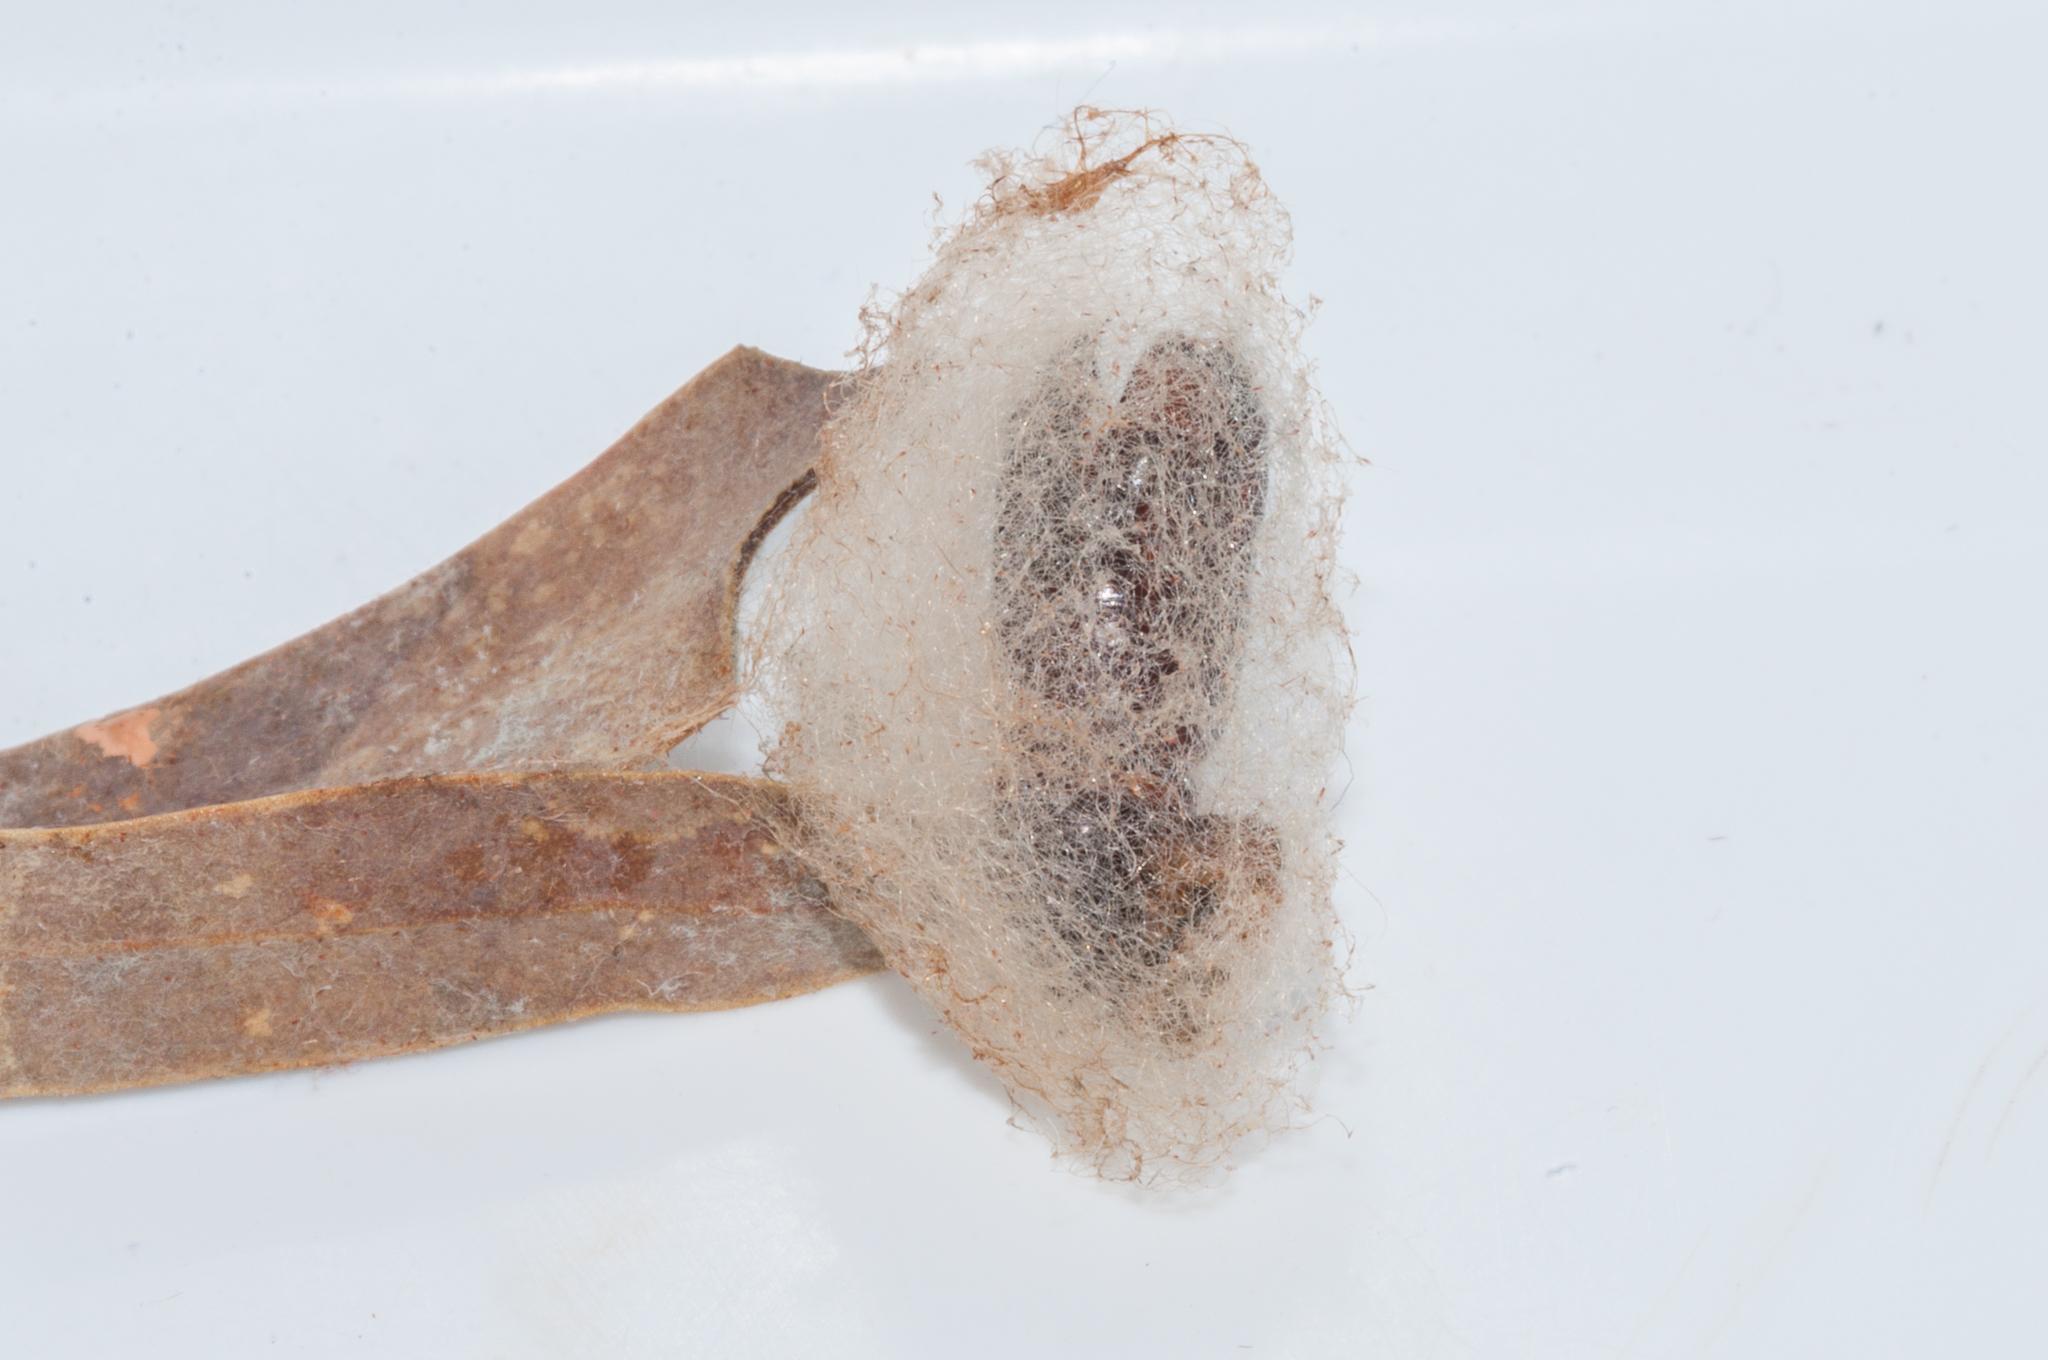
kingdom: Animalia
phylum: Arthropoda
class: Insecta
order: Lepidoptera
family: Notodontidae
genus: Clostera
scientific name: Clostera limacodina
